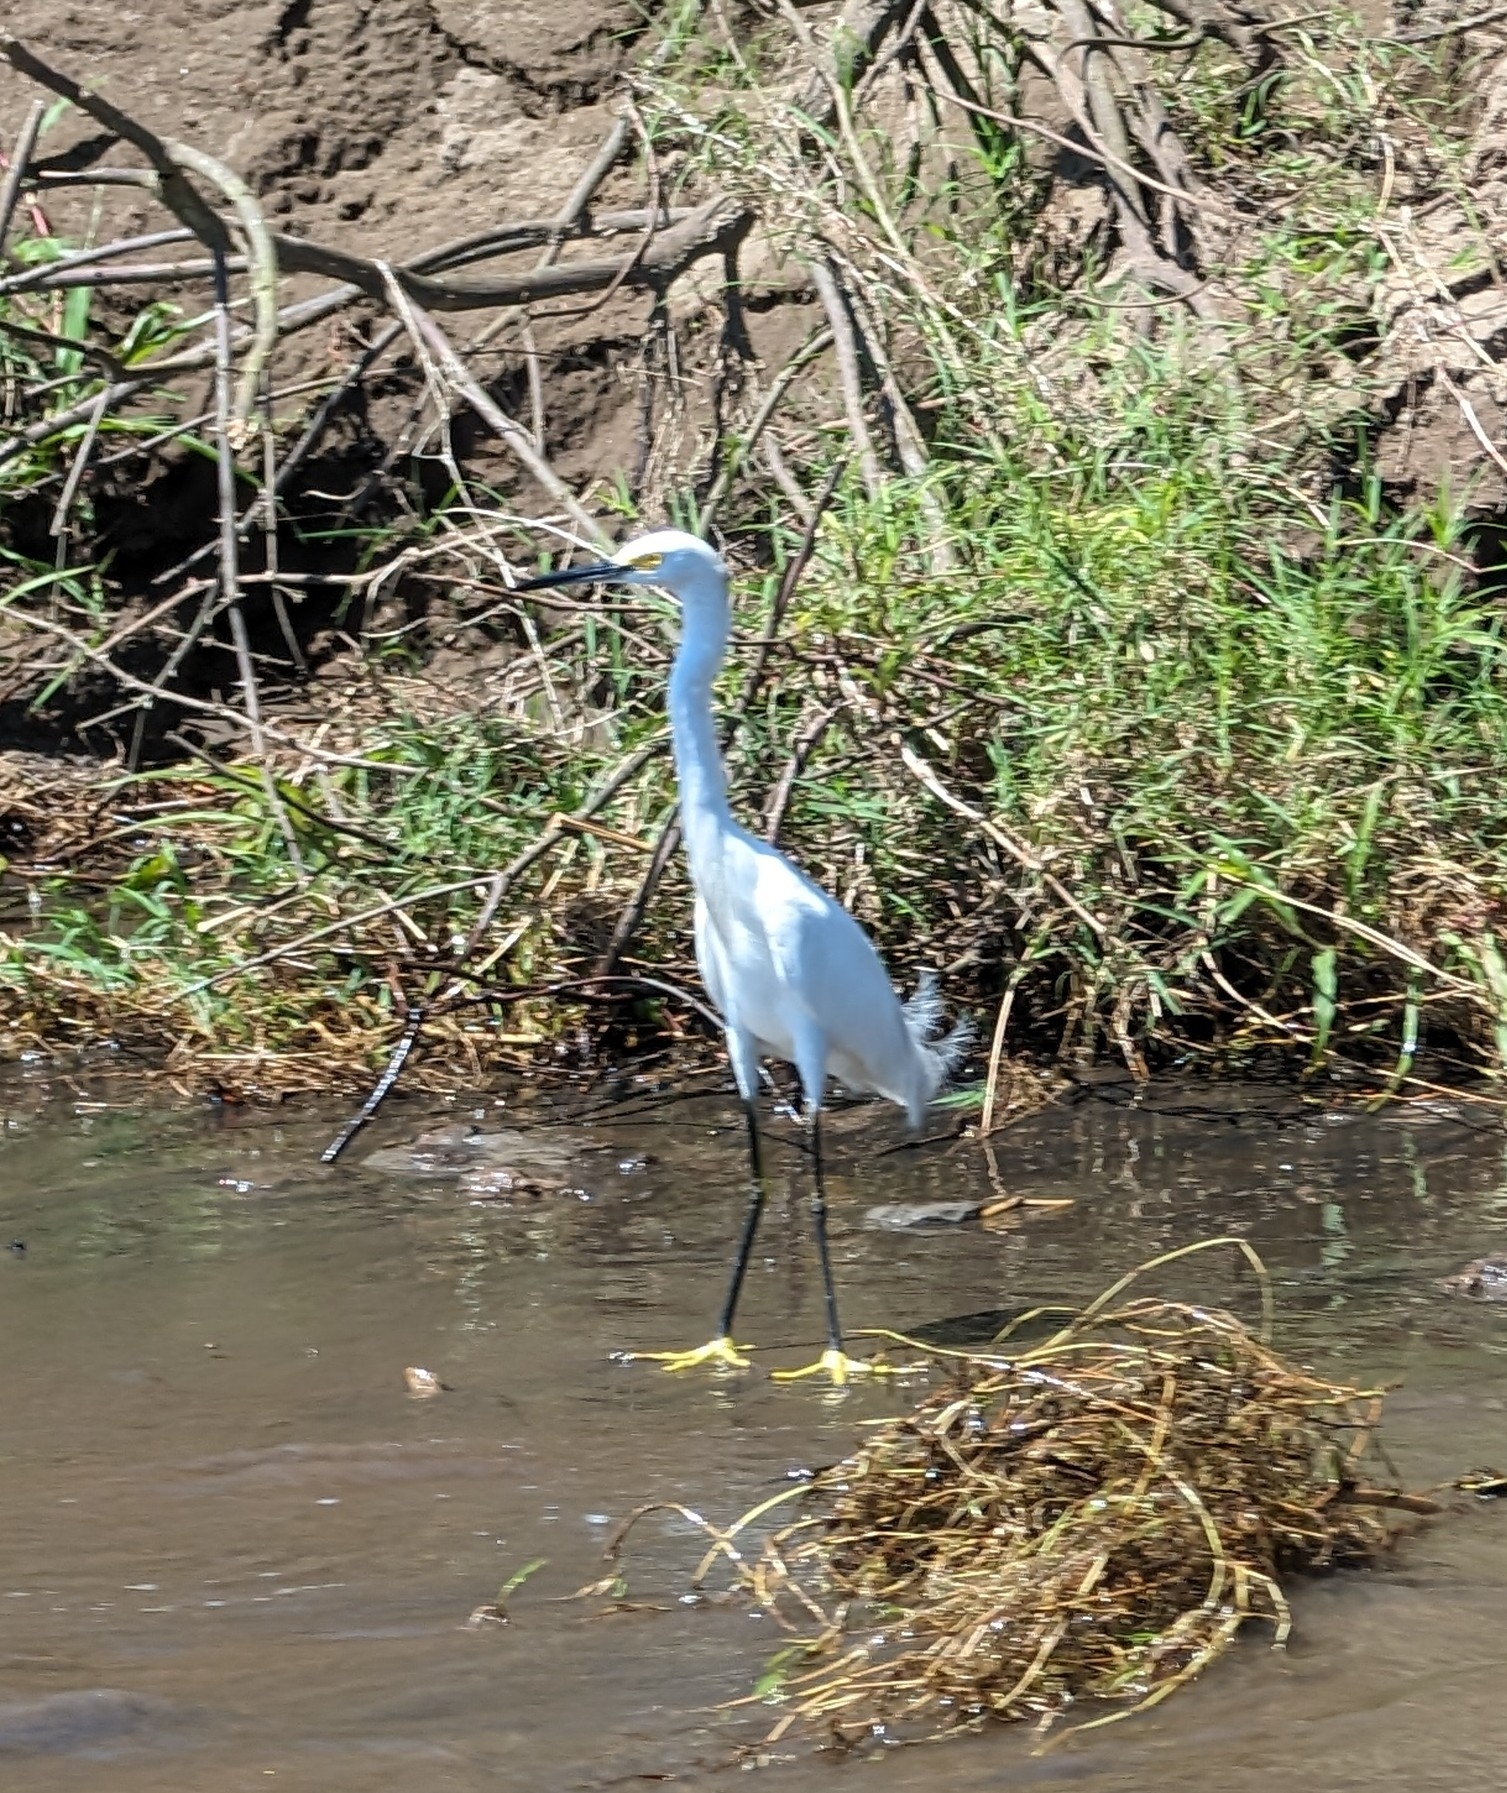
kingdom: Animalia
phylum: Chordata
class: Aves
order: Pelecaniformes
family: Ardeidae
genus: Egretta
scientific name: Egretta thula
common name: Snowy egret
